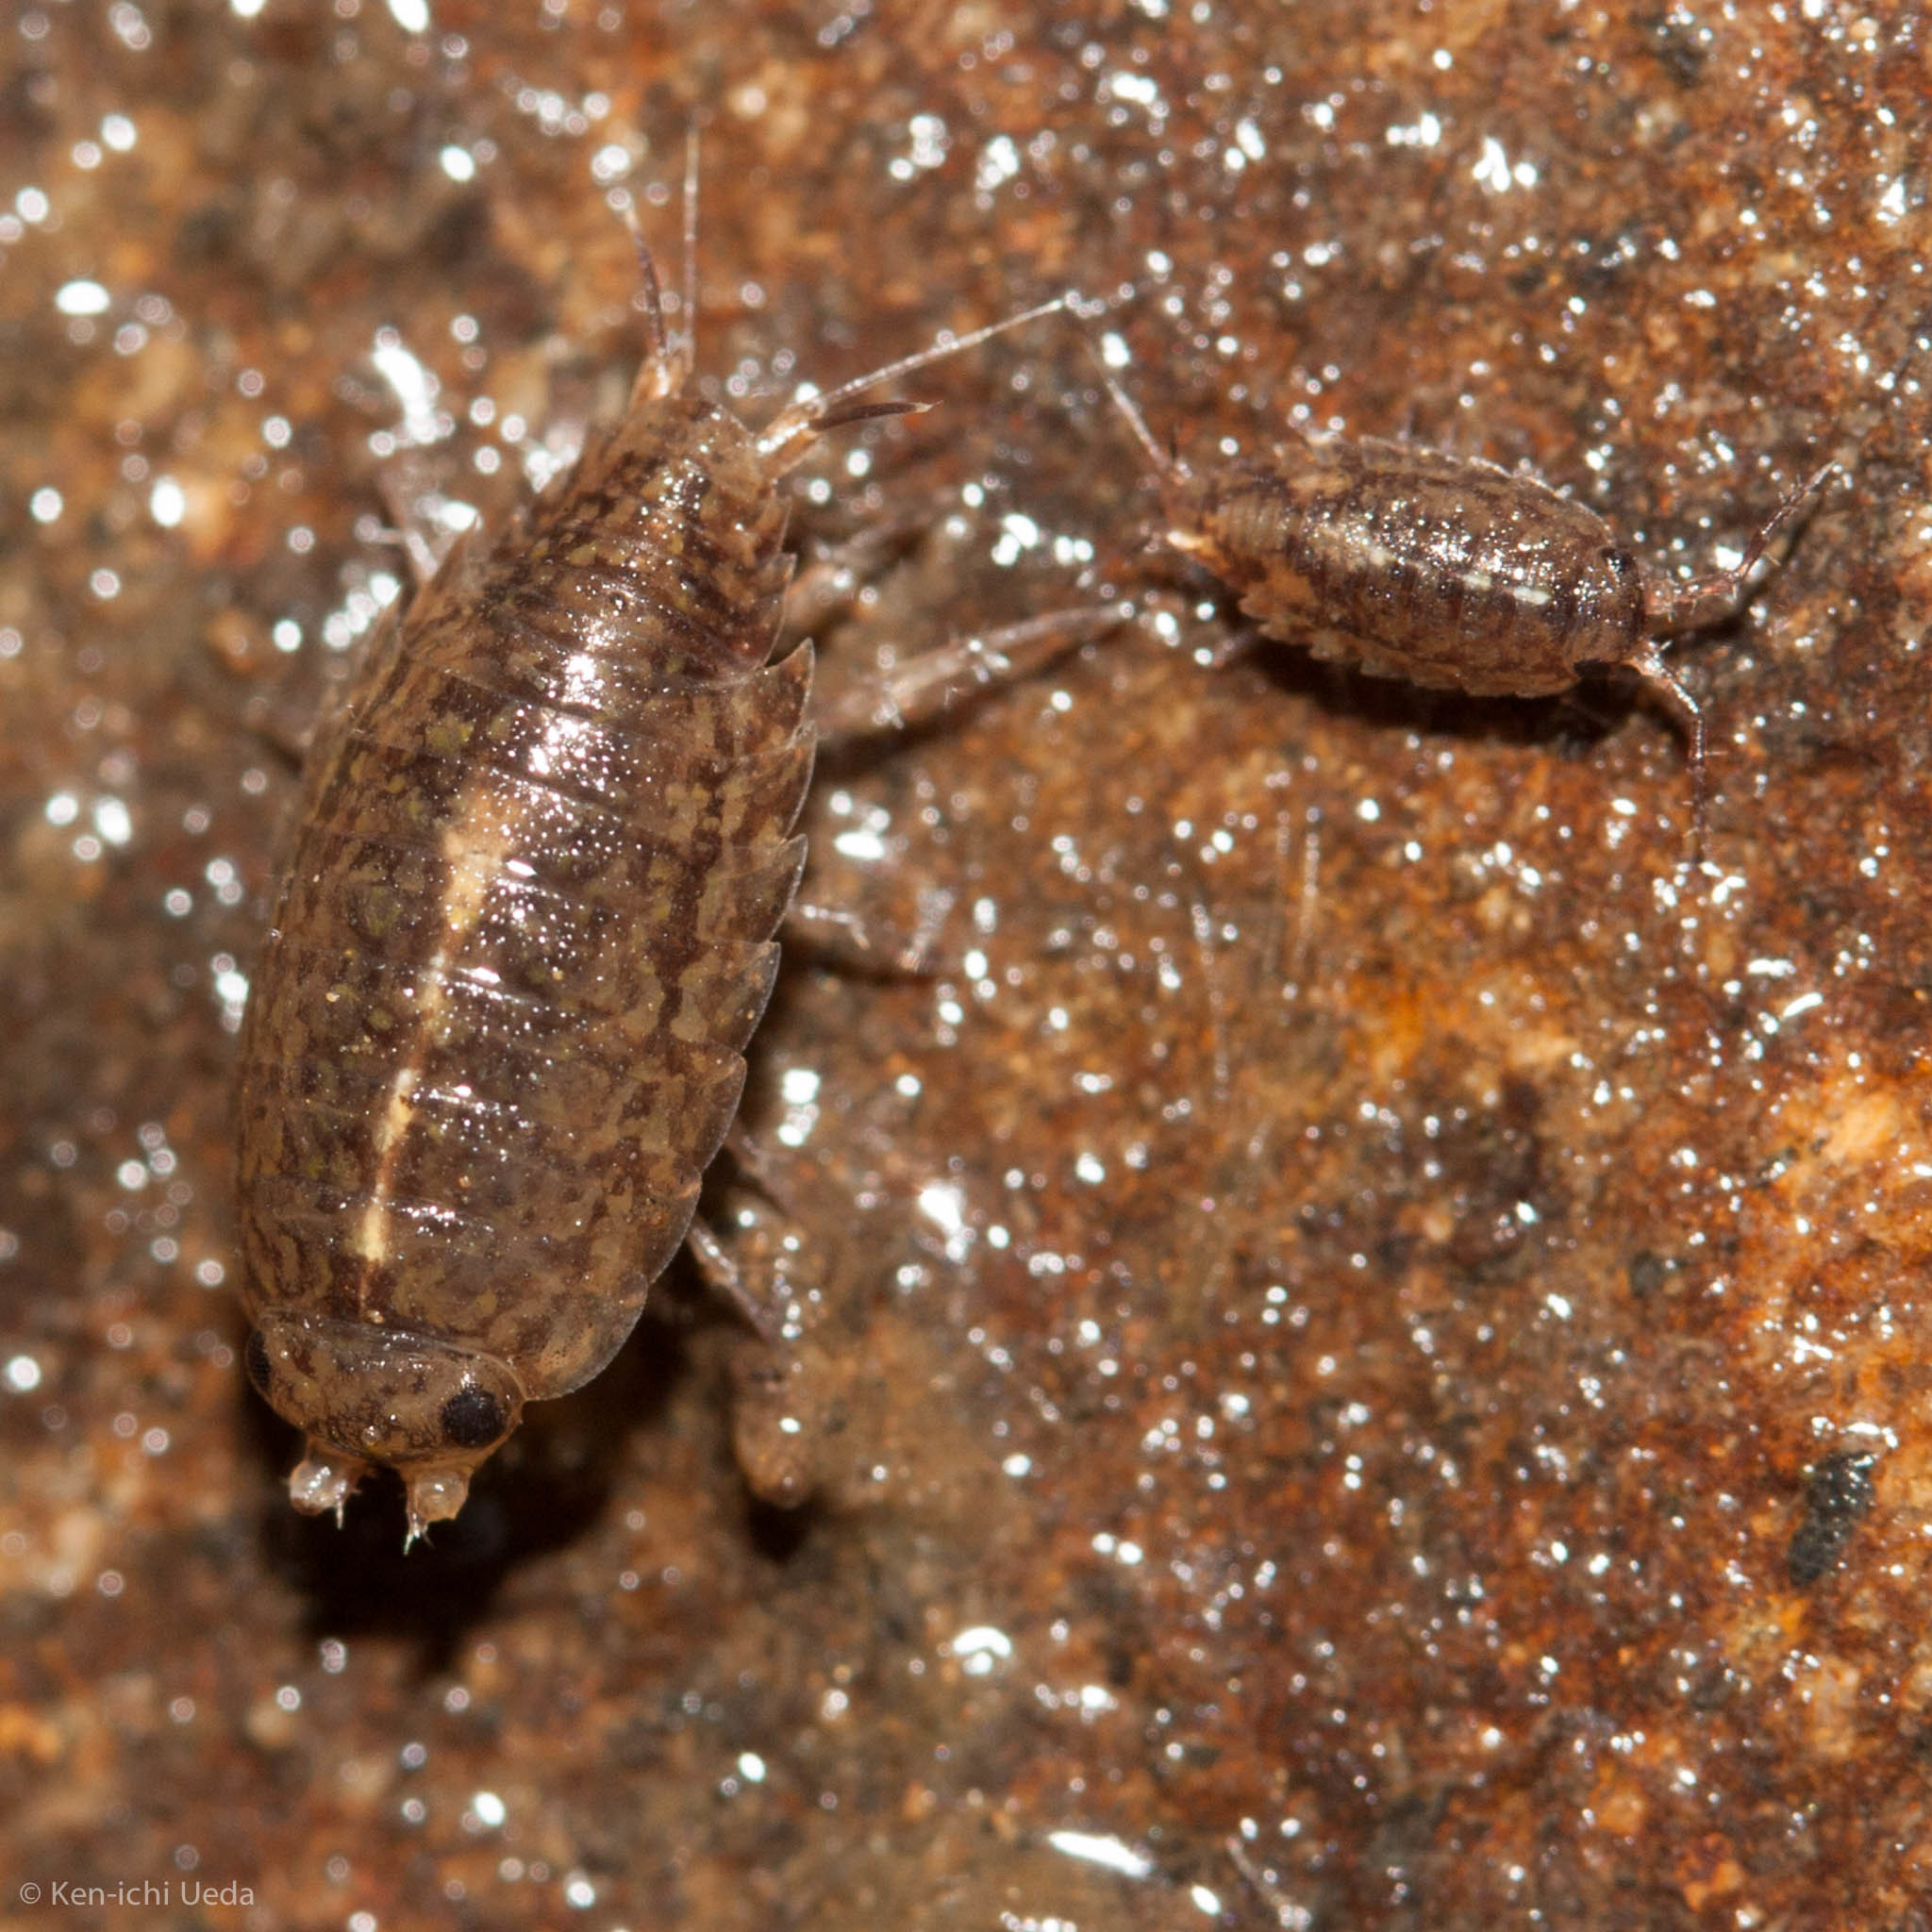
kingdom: Animalia
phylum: Arthropoda
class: Malacostraca
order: Isopoda
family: Ligiidae
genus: Ligidium
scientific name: Ligidium latum
